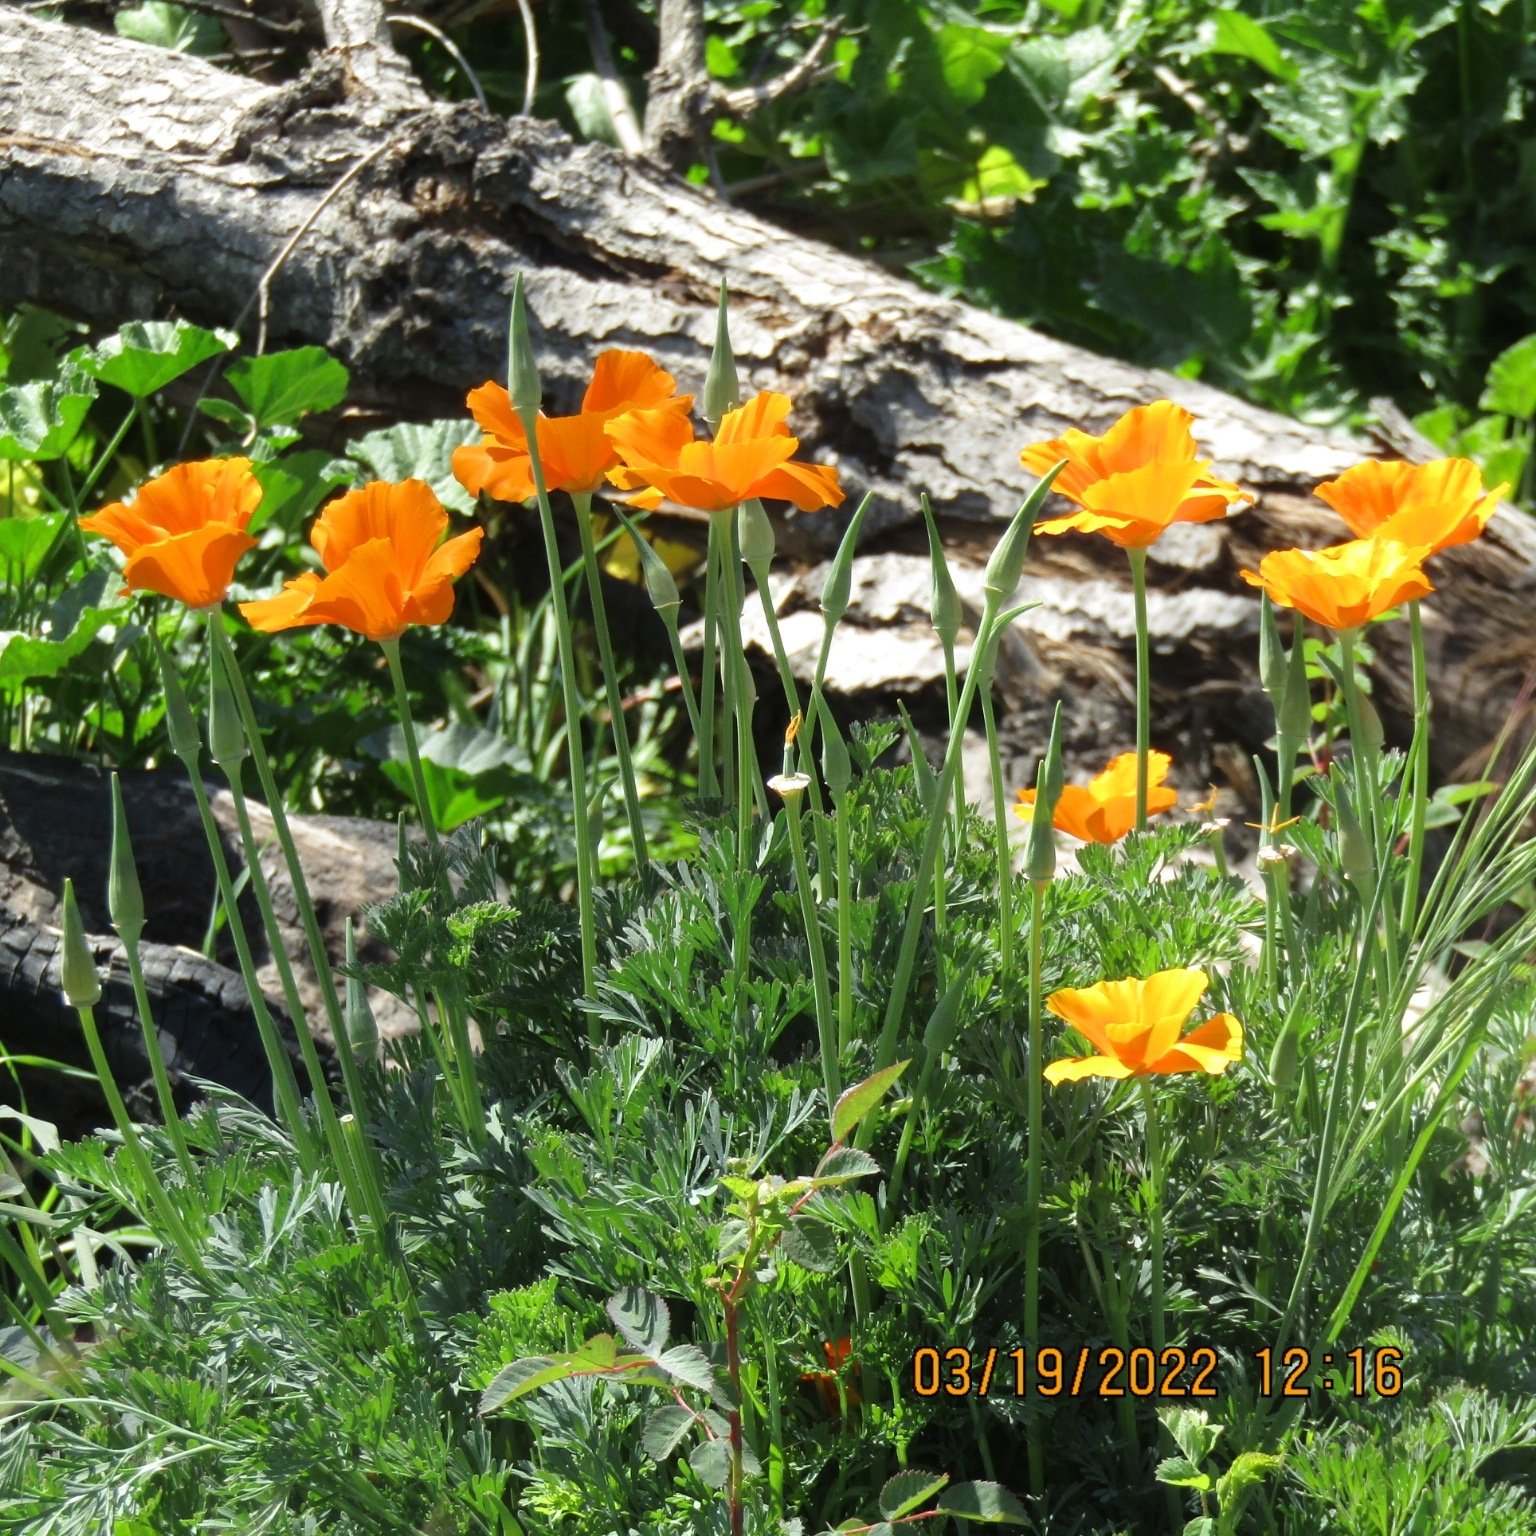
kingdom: Plantae
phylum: Tracheophyta
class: Magnoliopsida
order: Ranunculales
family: Papaveraceae
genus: Eschscholzia
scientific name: Eschscholzia californica
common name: California poppy
